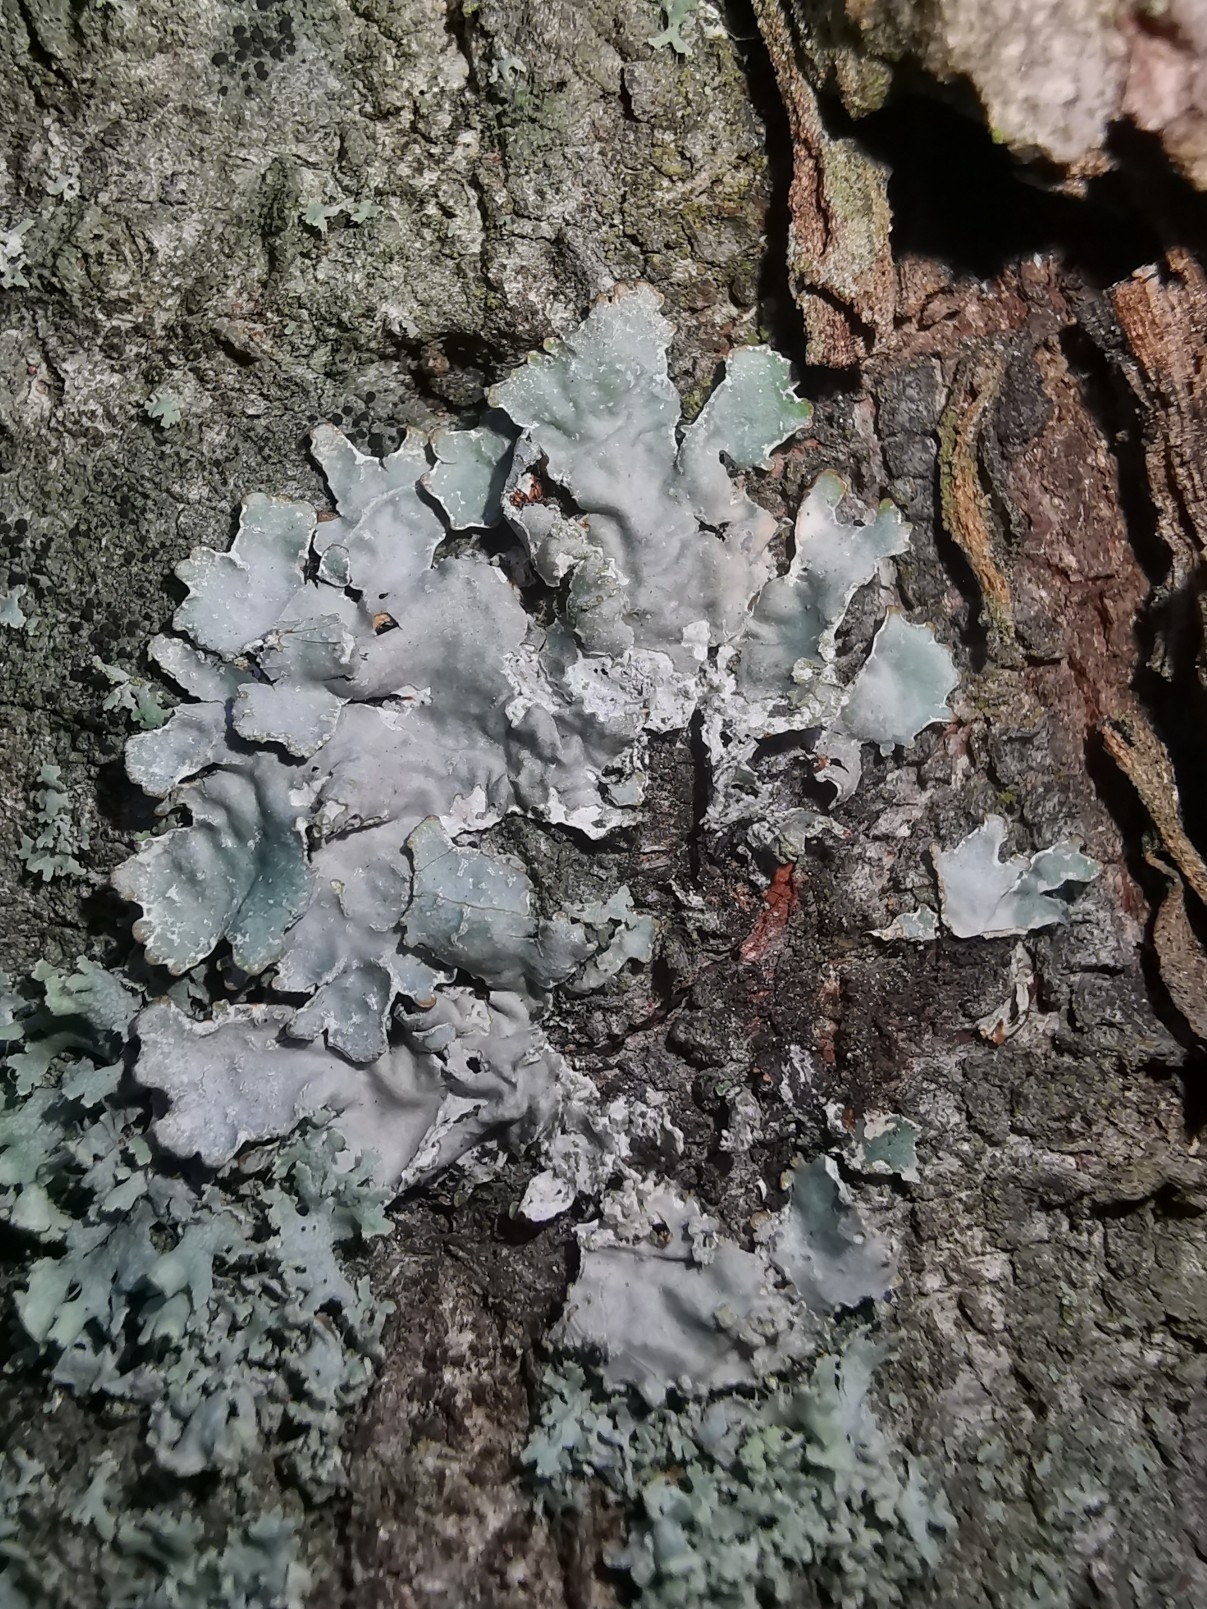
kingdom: Fungi
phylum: Ascomycota
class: Lecanoromycetes
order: Lecanorales
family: Parmeliaceae
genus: Parmelia
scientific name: Parmelia sulcata
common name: Netted shield lichen
